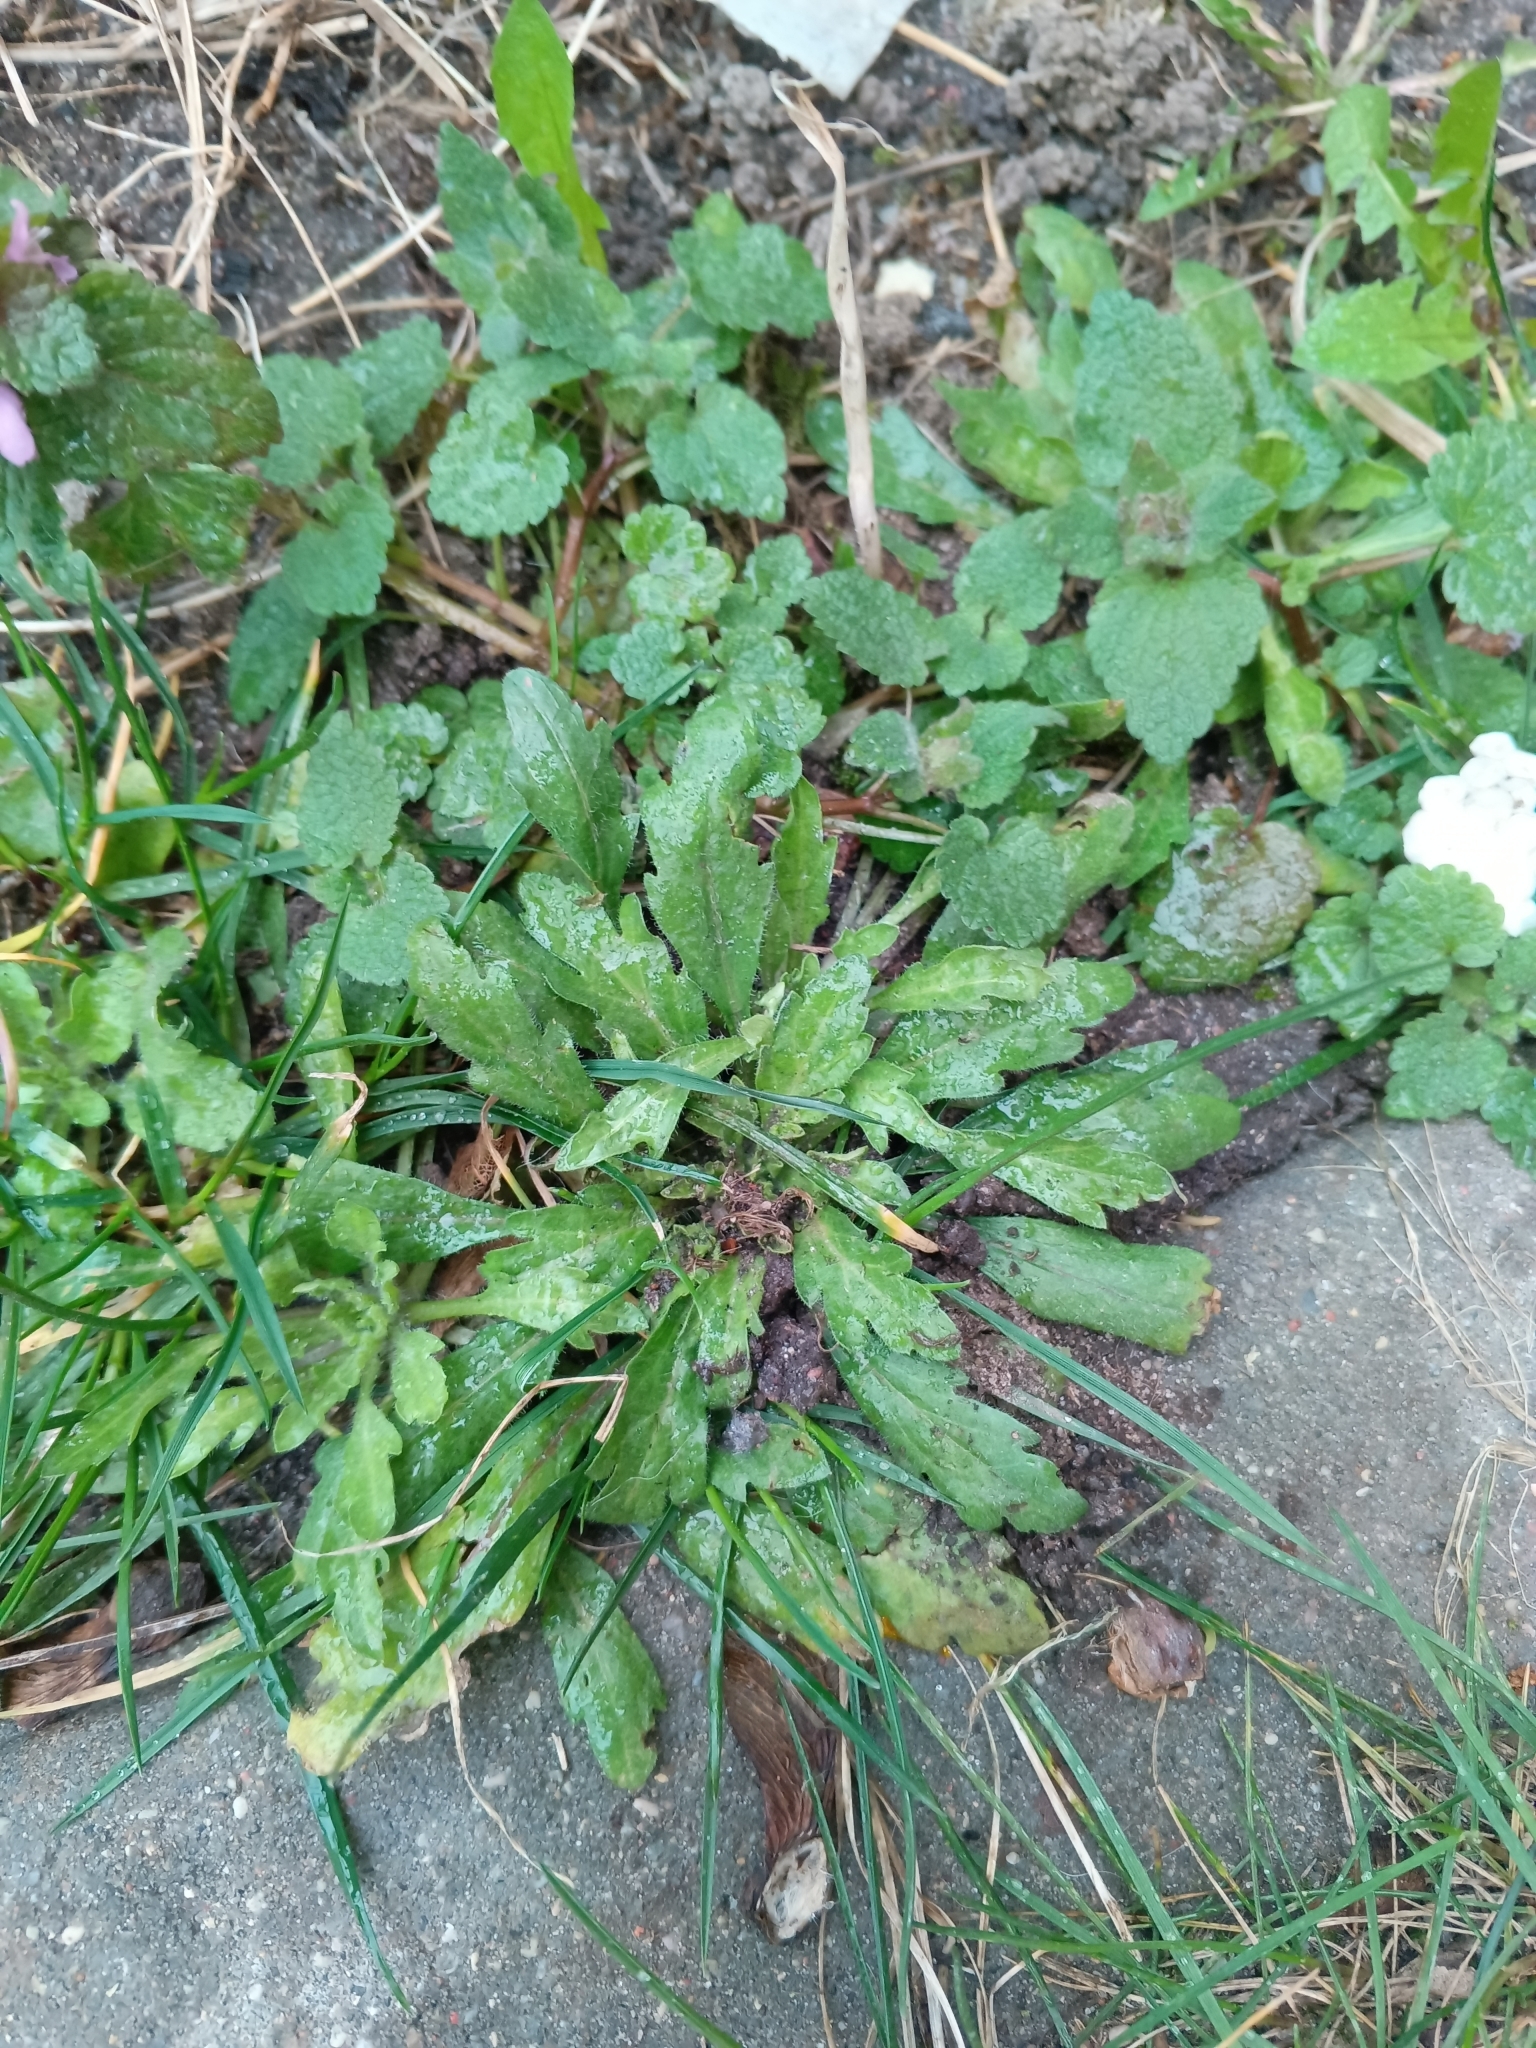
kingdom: Plantae
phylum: Tracheophyta
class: Magnoliopsida
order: Asterales
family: Asteraceae
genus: Erigeron
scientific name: Erigeron canadensis
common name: Canadian fleabane
